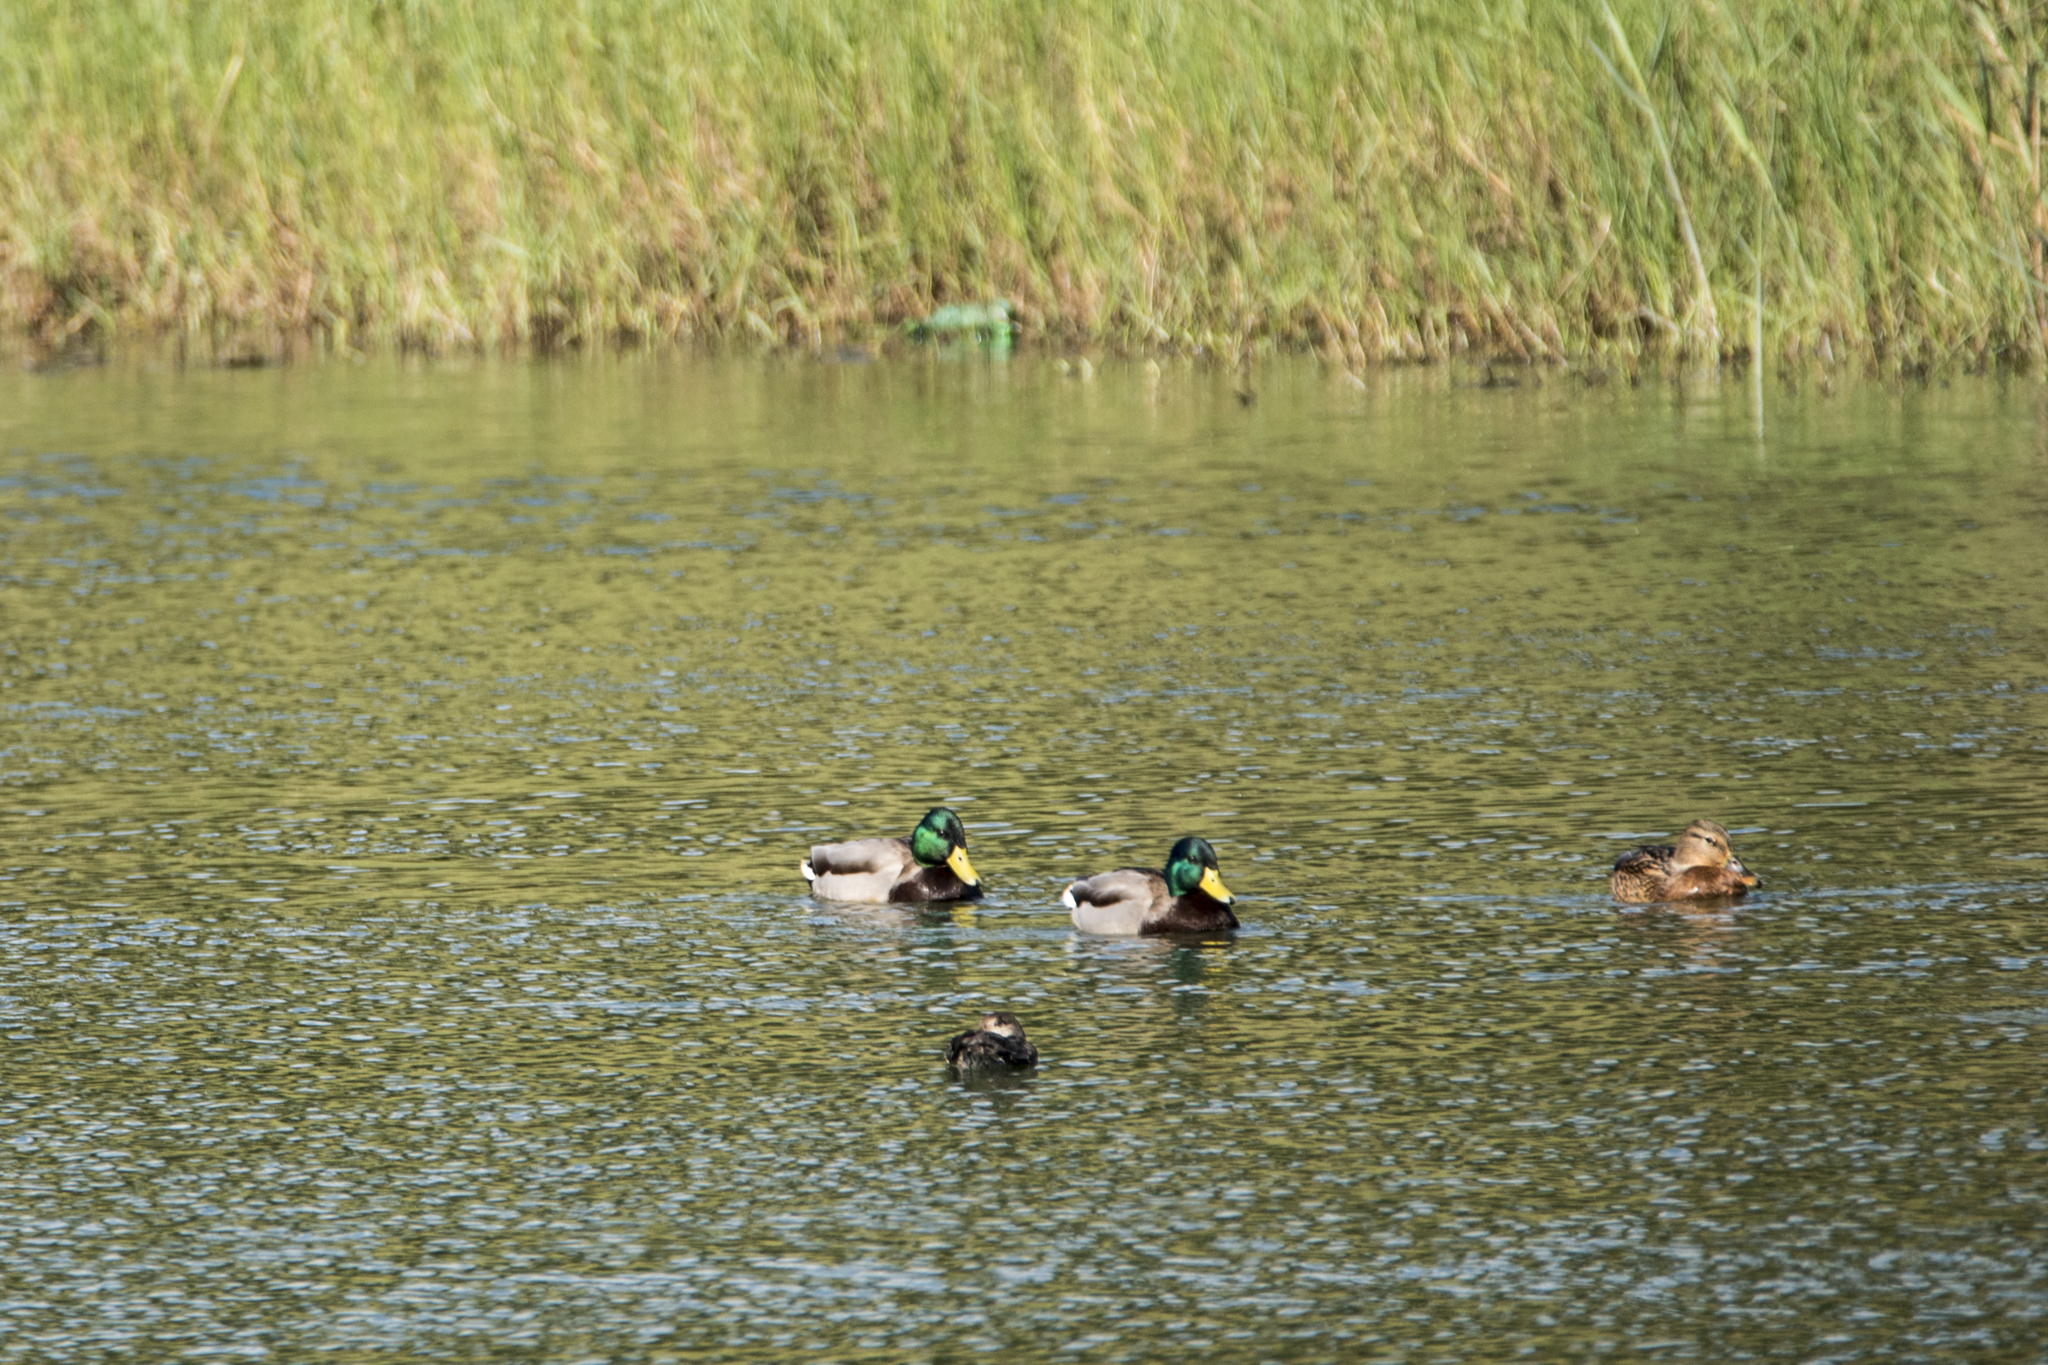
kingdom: Animalia
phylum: Chordata
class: Aves
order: Anseriformes
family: Anatidae
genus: Anas
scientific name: Anas platyrhynchos
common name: Mallard
